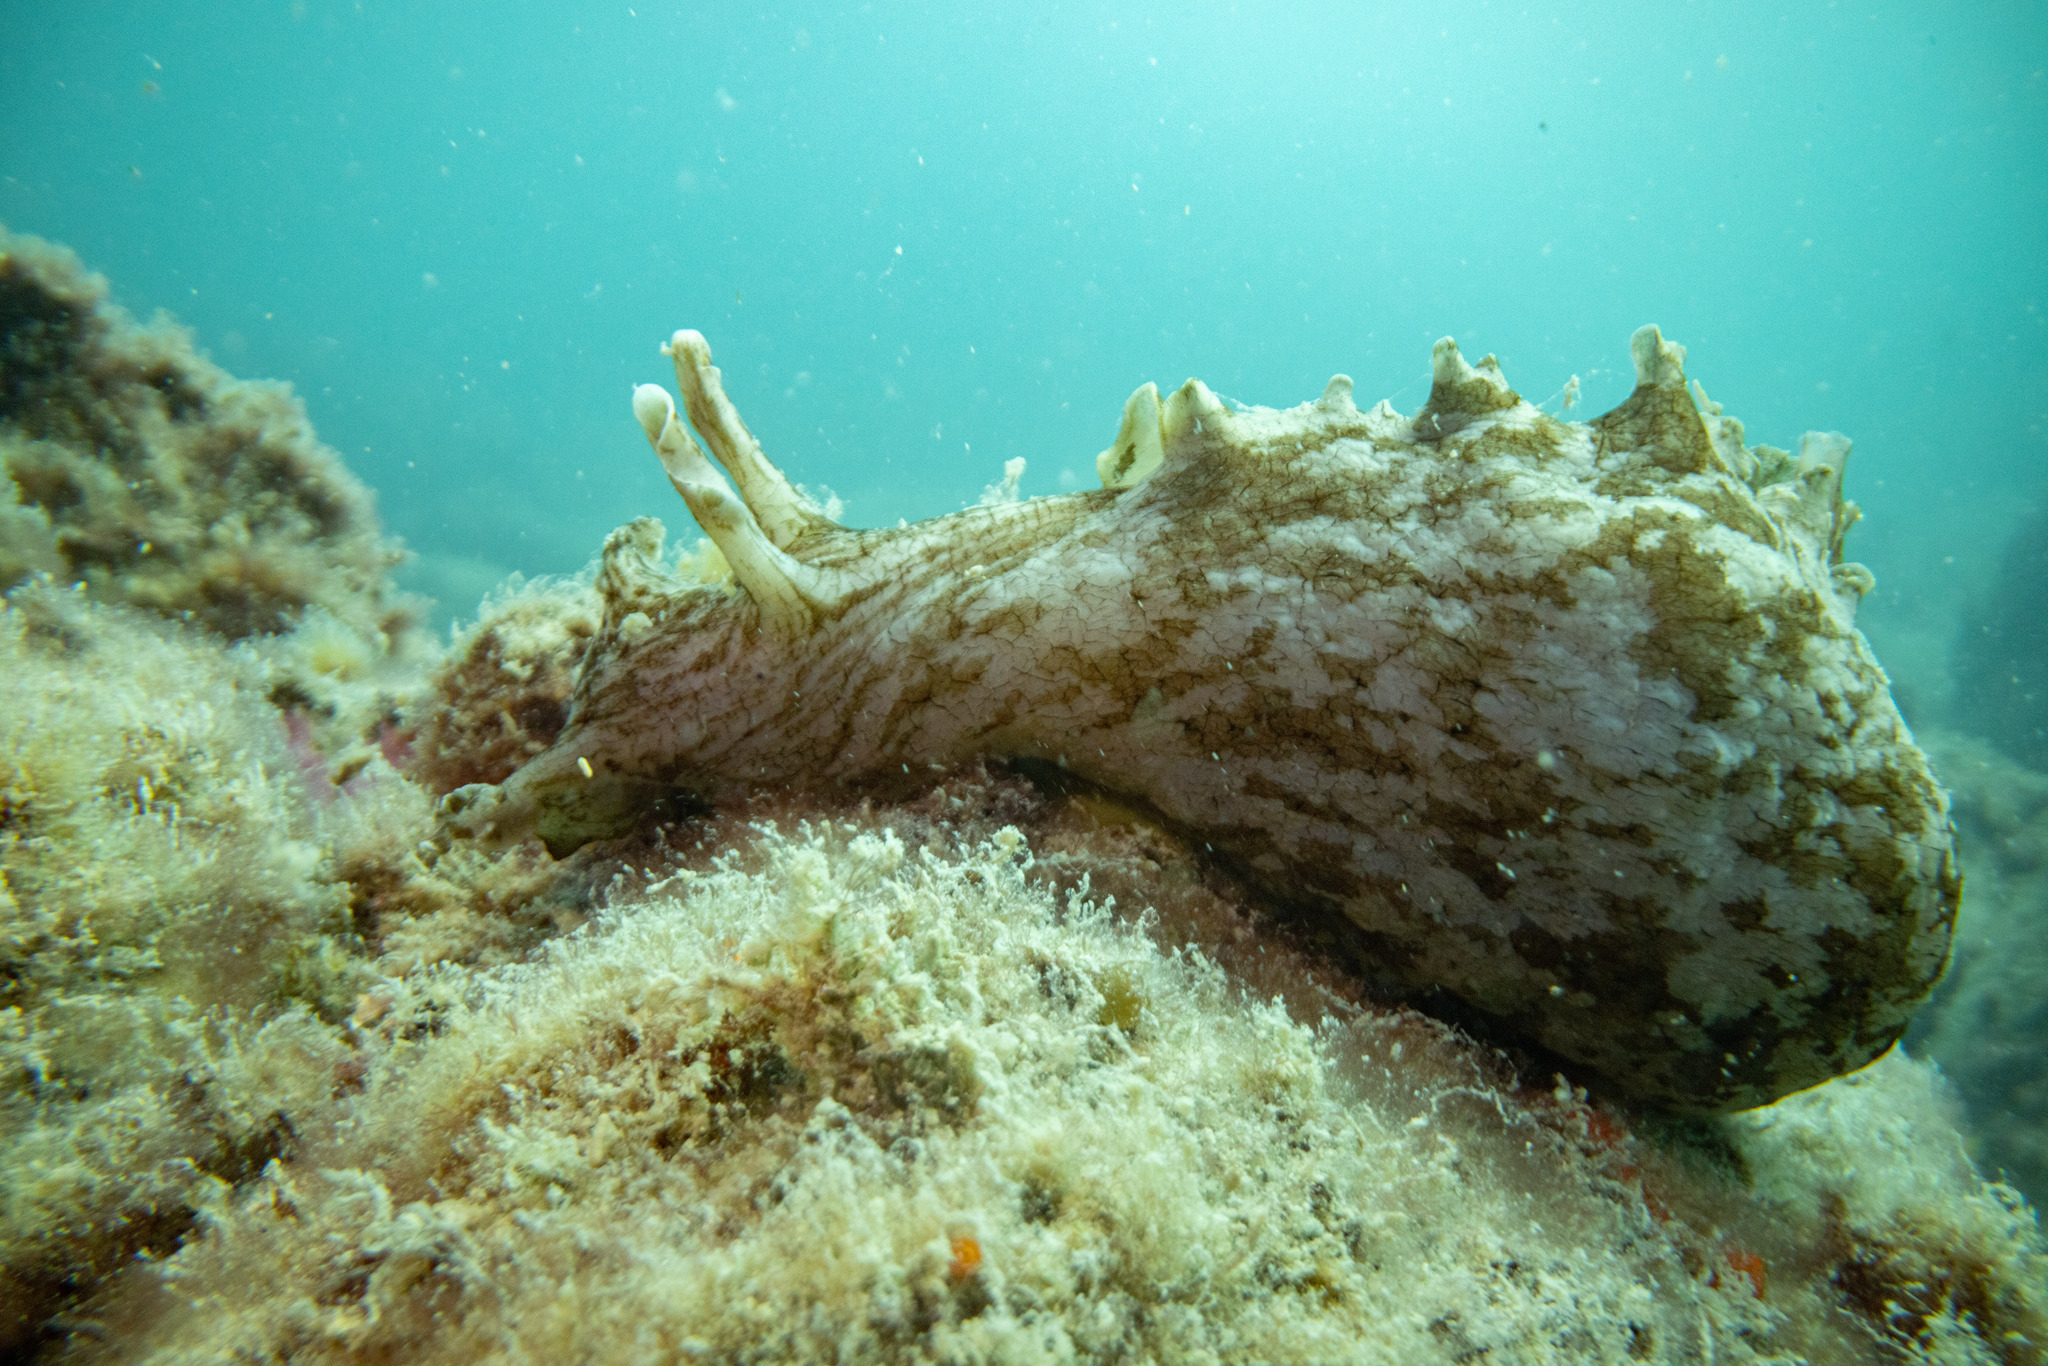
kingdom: Animalia
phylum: Mollusca
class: Gastropoda
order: Aplysiida
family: Aplysiidae
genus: Aplysia
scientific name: Aplysia keraudreni
